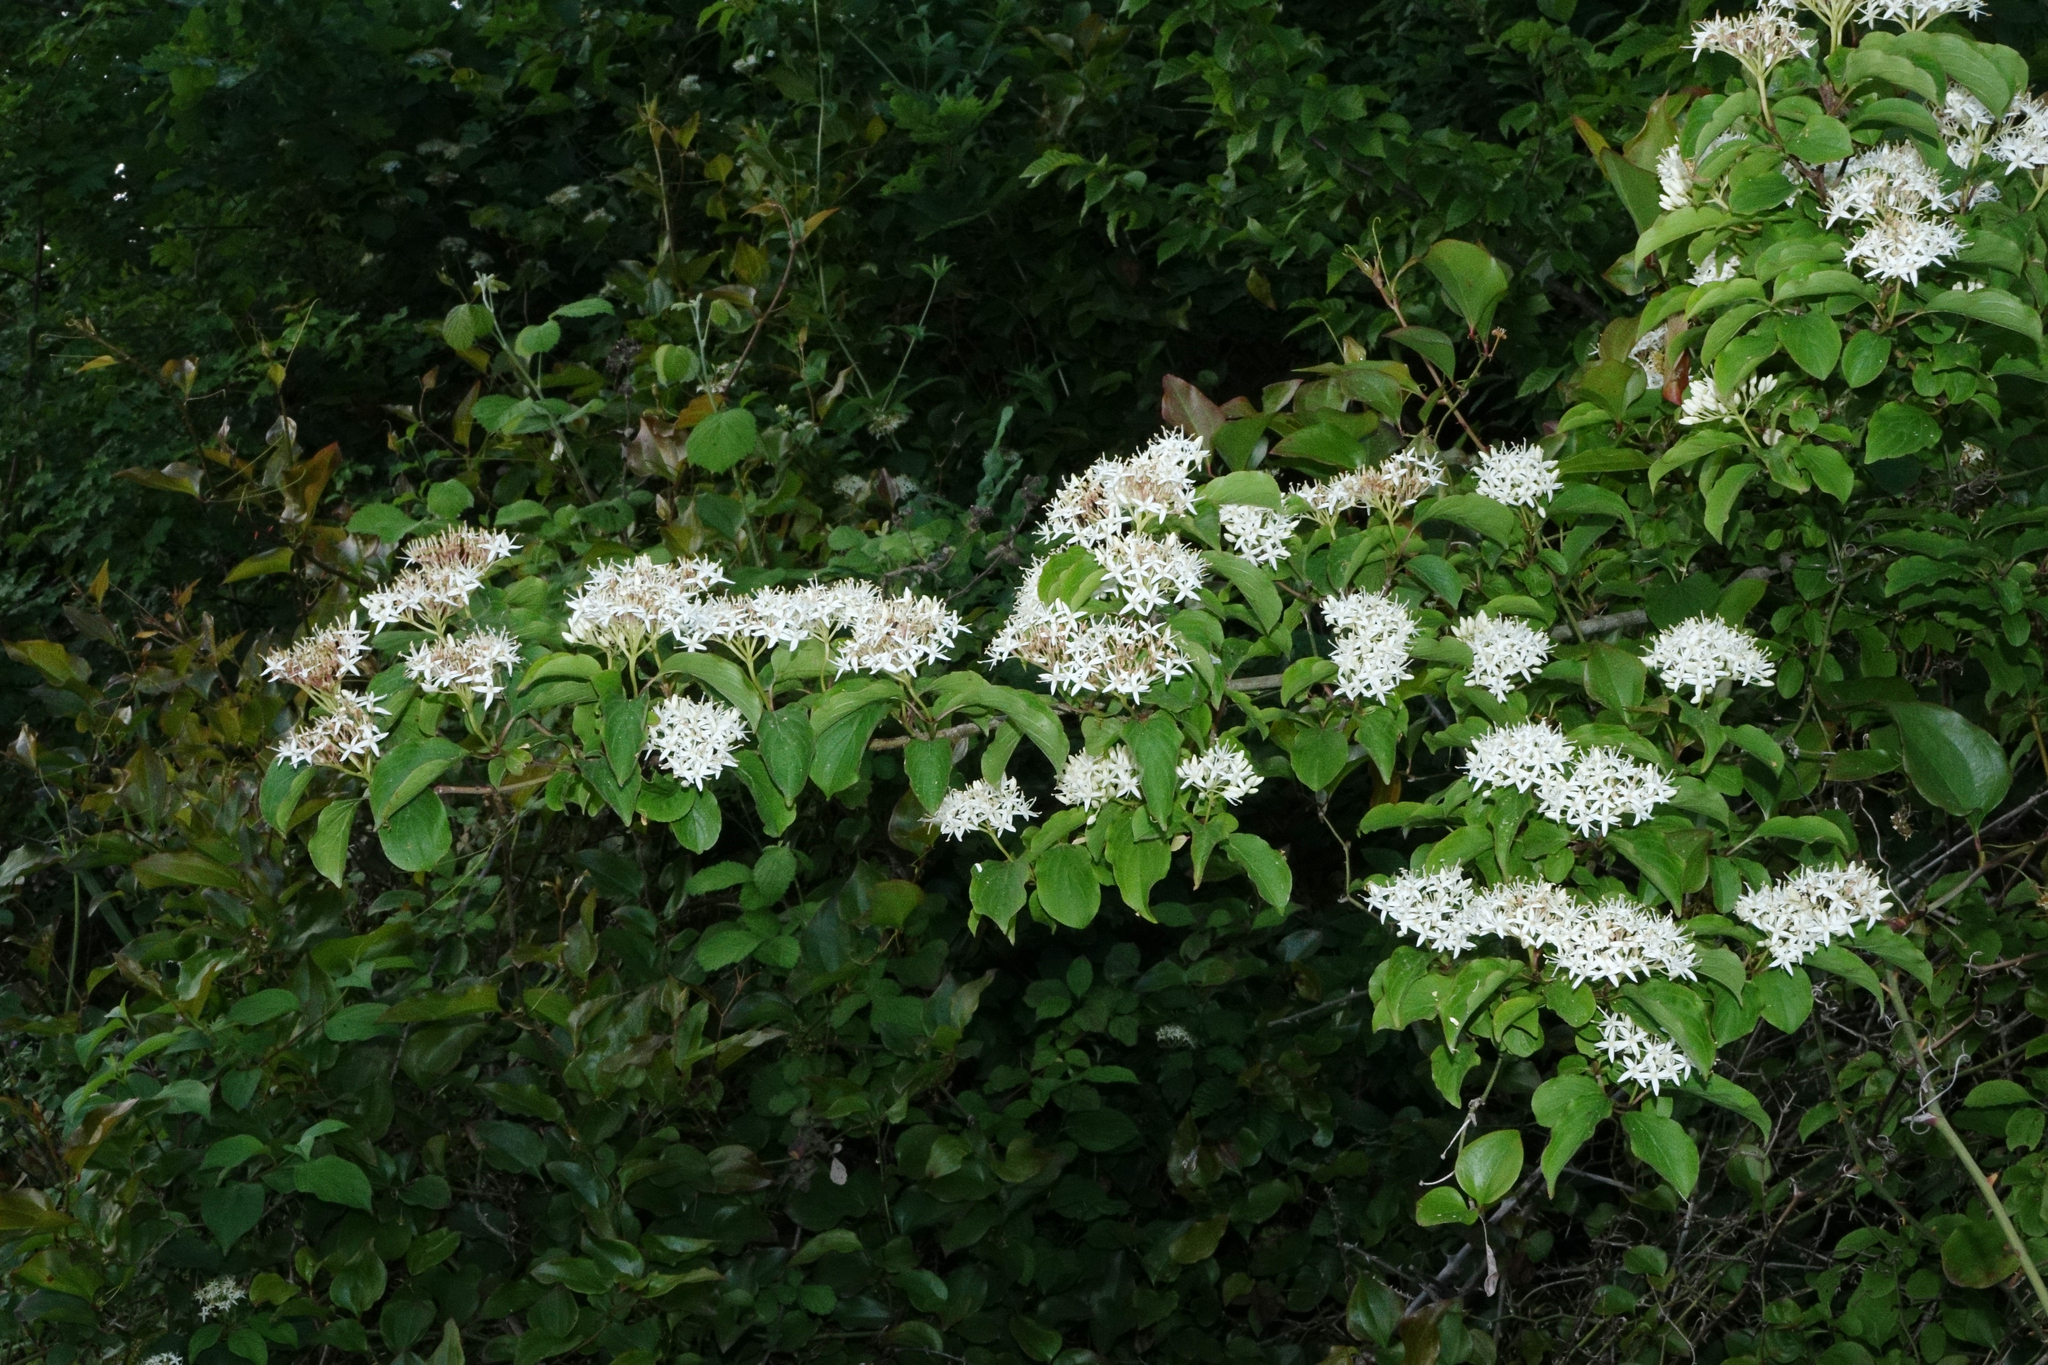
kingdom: Plantae
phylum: Tracheophyta
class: Magnoliopsida
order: Cornales
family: Cornaceae
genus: Cornus
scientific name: Cornus sanguinea
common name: Dogwood
